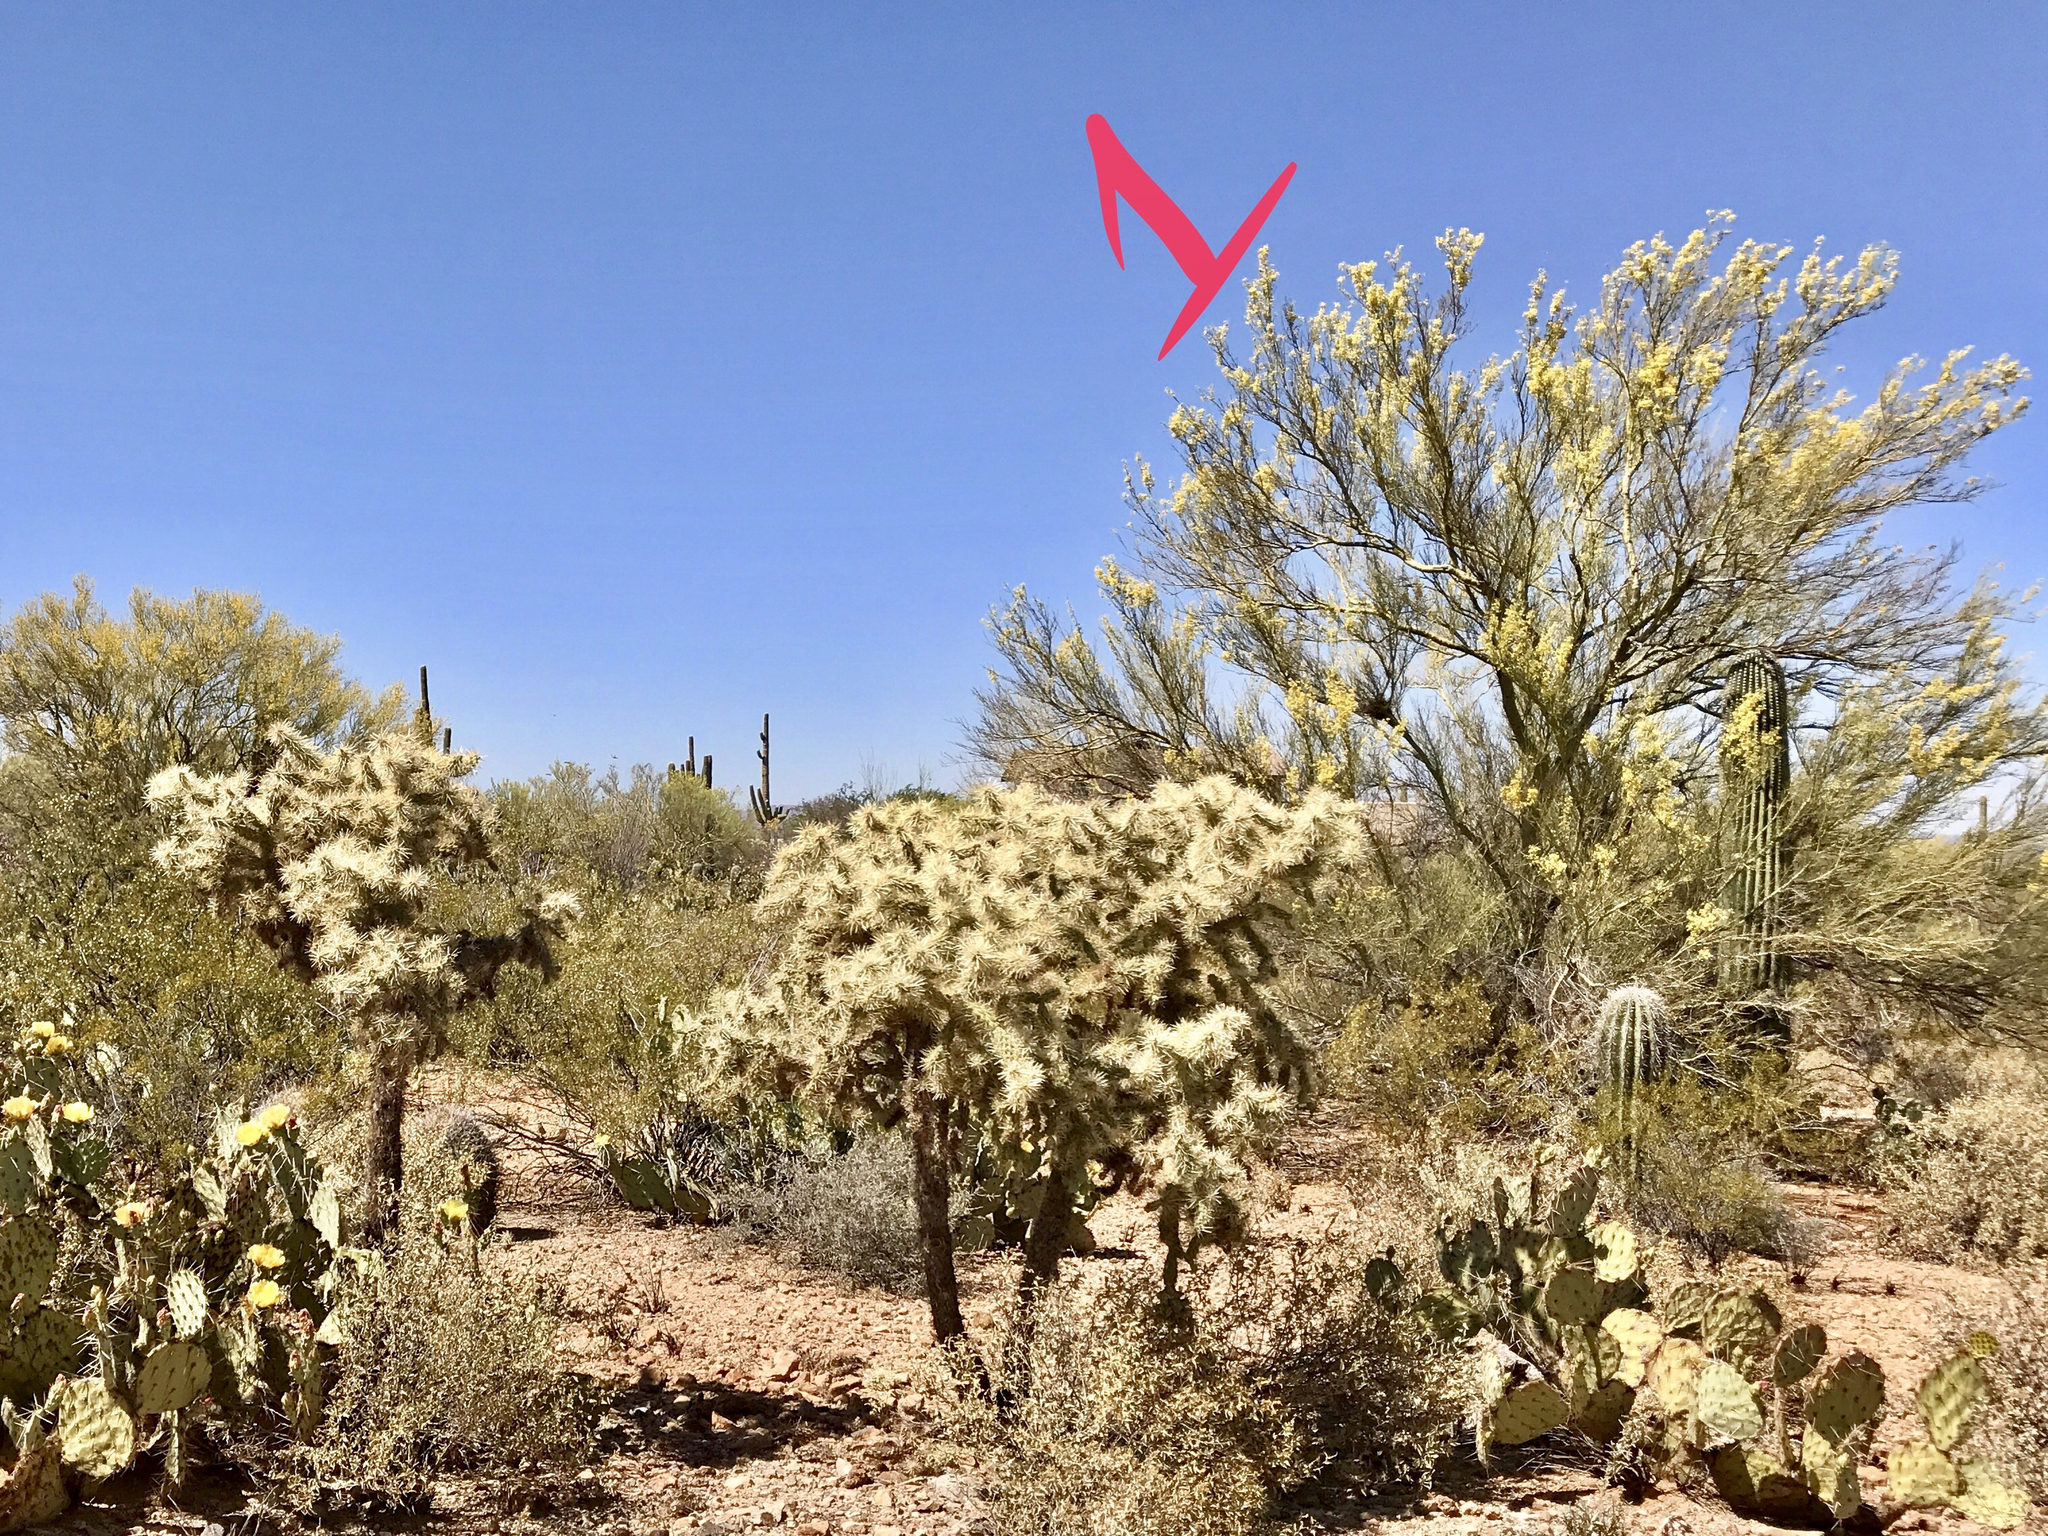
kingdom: Plantae
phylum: Tracheophyta
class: Magnoliopsida
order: Caryophyllales
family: Cactaceae
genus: Cylindropuntia
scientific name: Cylindropuntia fulgida
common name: Jumping cholla
